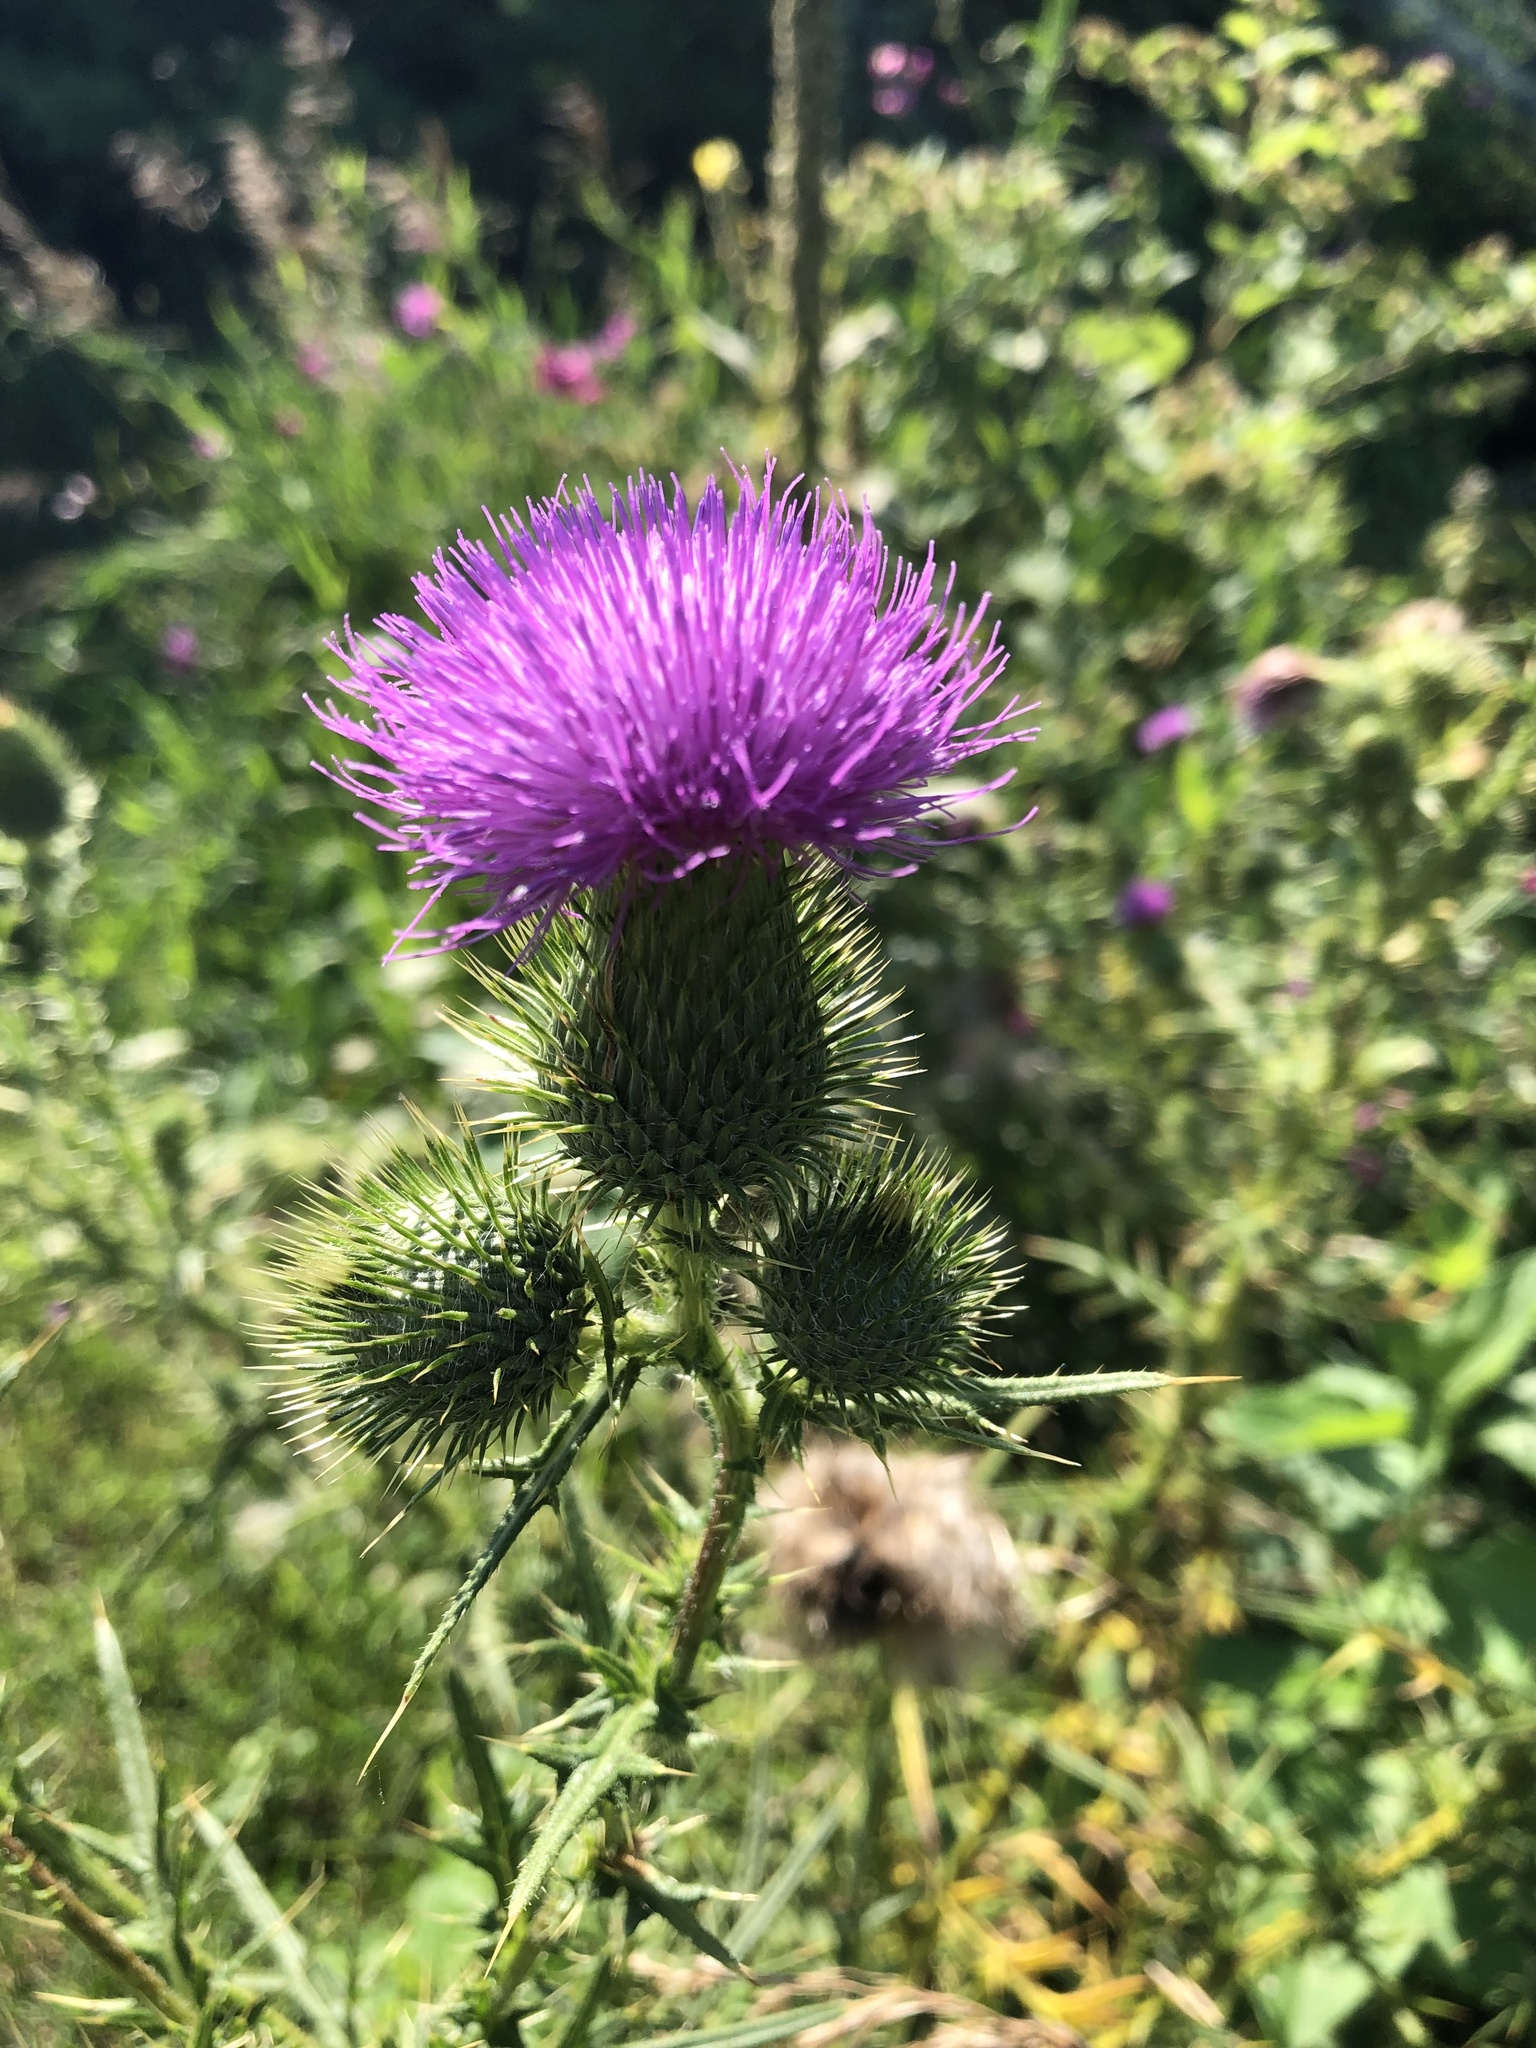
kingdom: Plantae
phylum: Tracheophyta
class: Magnoliopsida
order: Asterales
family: Asteraceae
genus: Cirsium
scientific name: Cirsium vulgare
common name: Bull thistle
